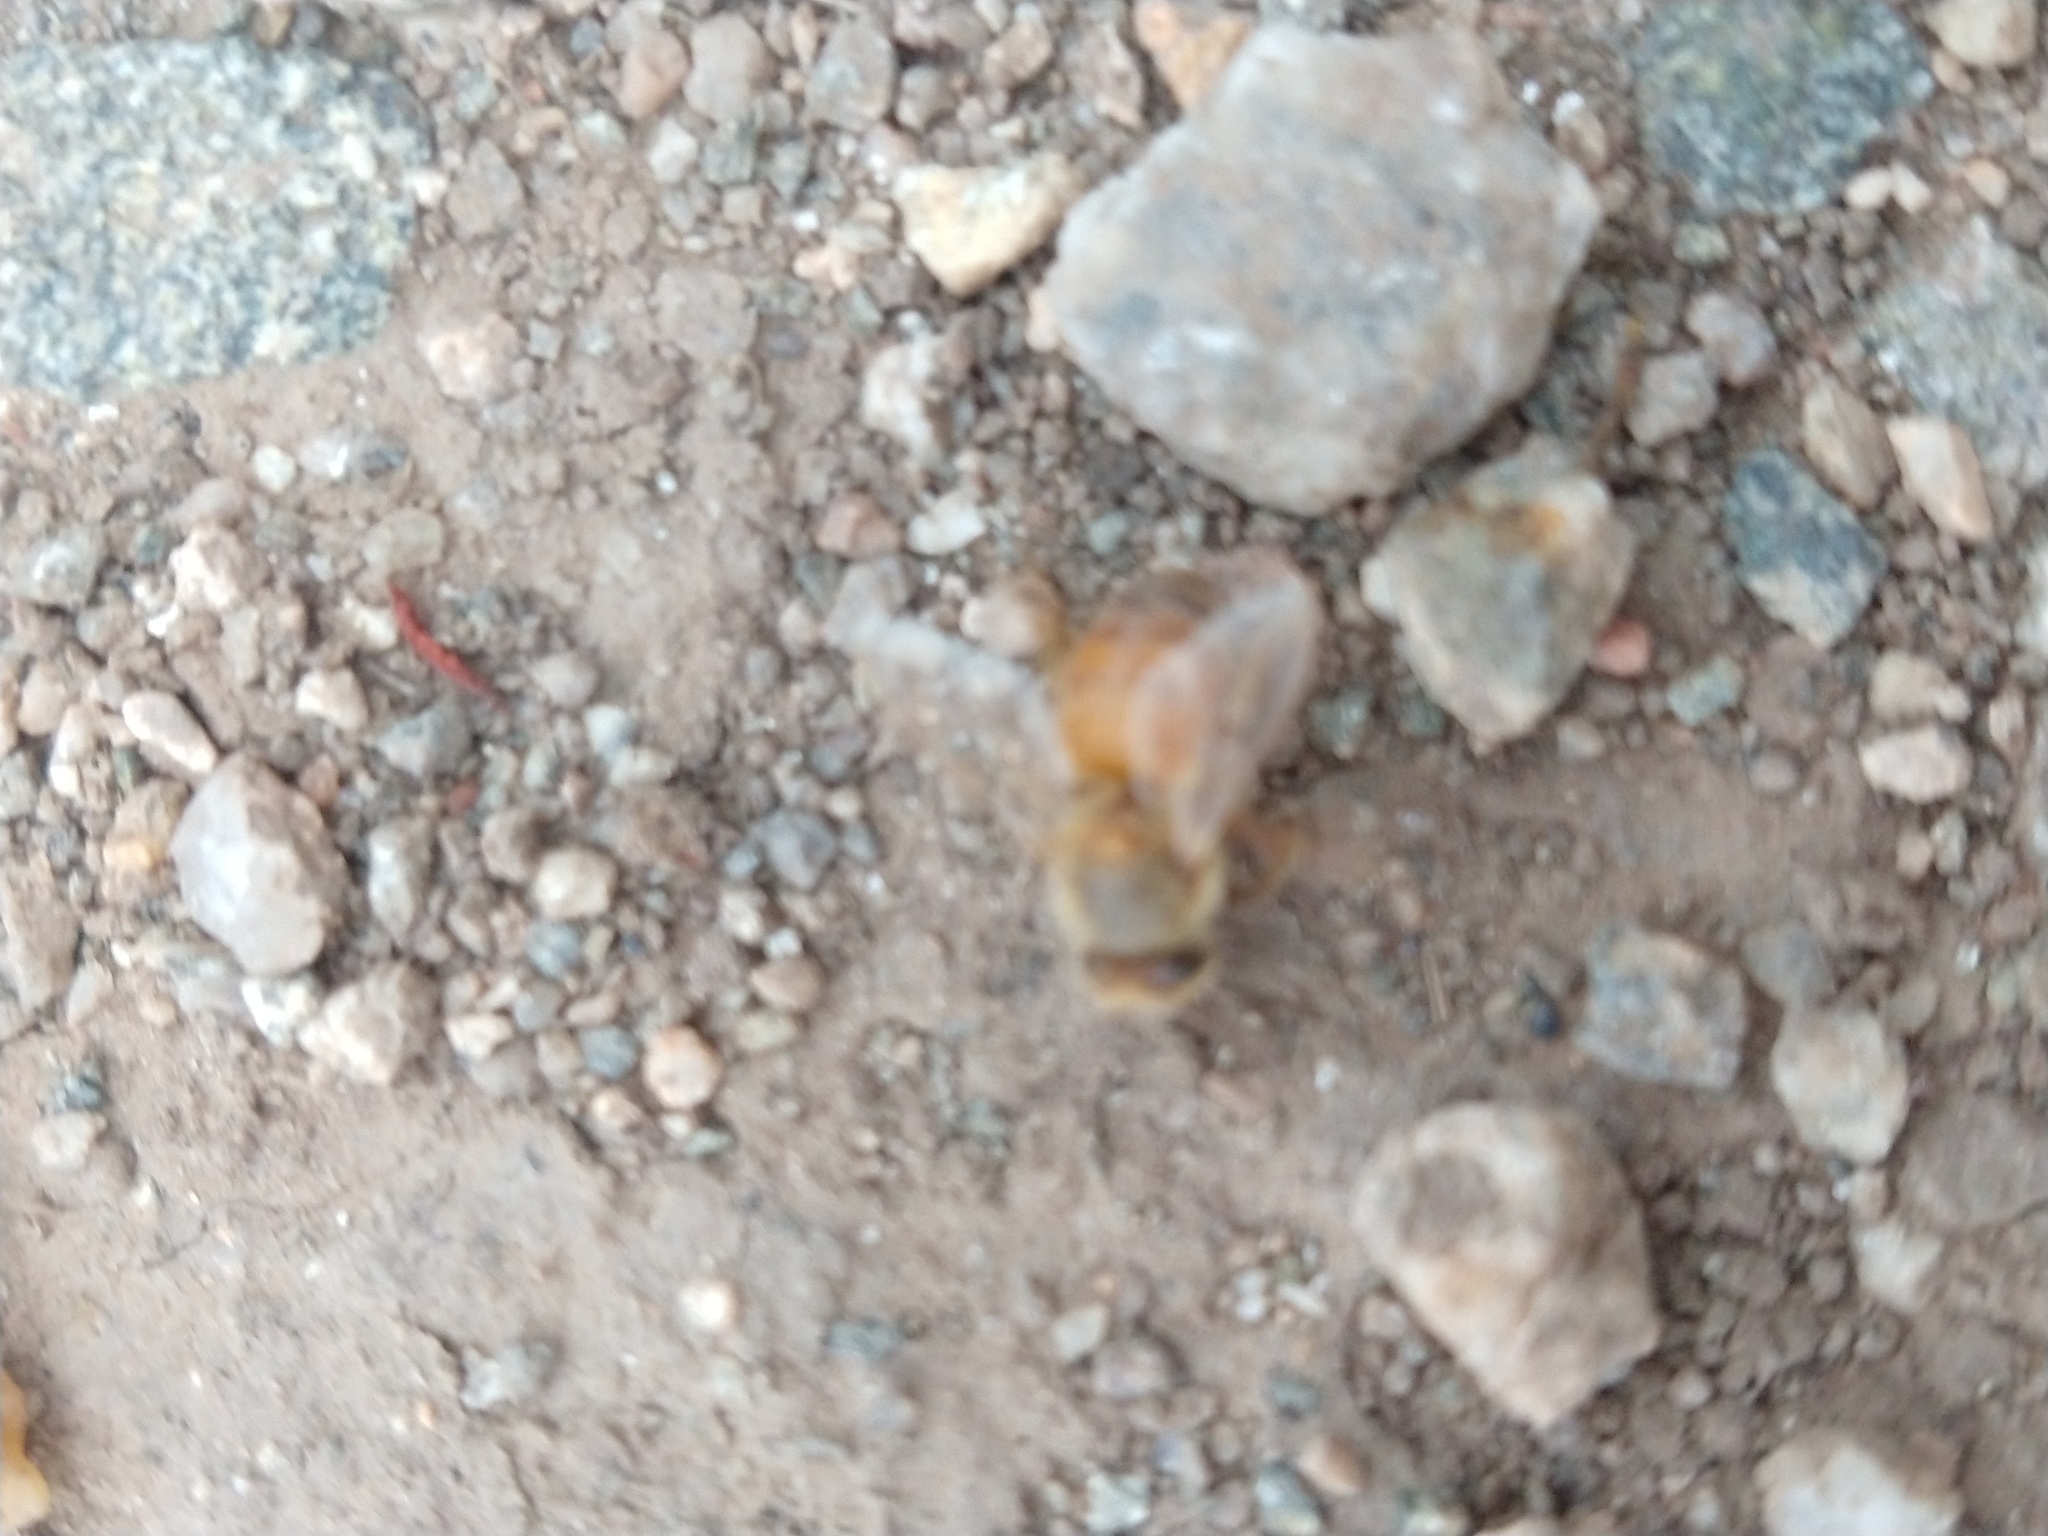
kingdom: Animalia
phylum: Arthropoda
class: Insecta
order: Hymenoptera
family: Apidae
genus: Apis
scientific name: Apis mellifera
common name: Honey bee
